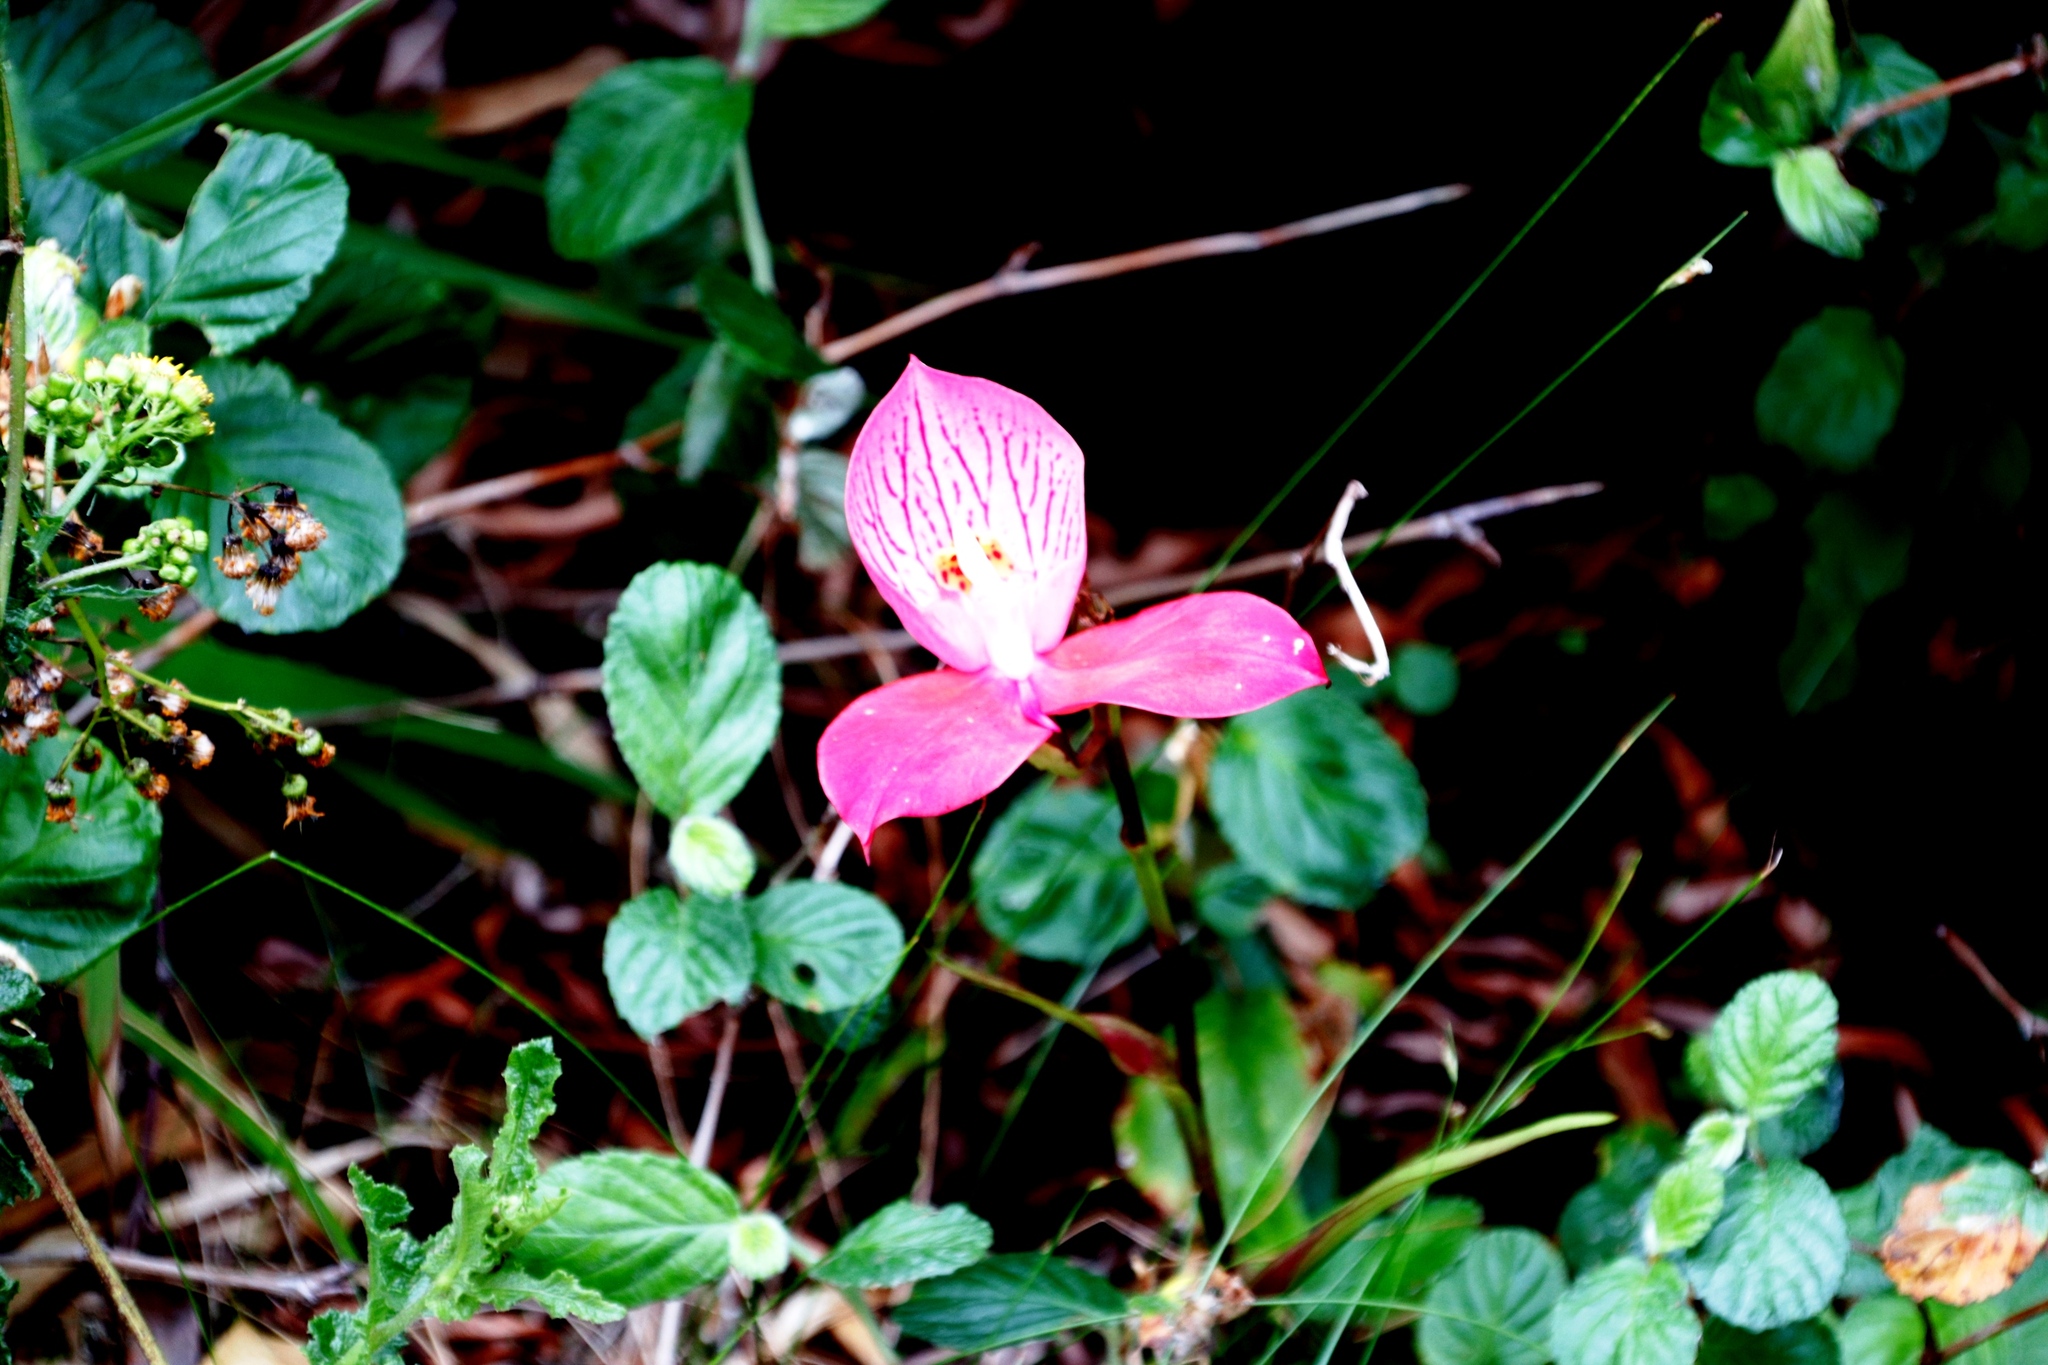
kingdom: Plantae
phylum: Tracheophyta
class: Liliopsida
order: Asparagales
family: Orchidaceae
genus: Disa
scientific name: Disa uniflora
